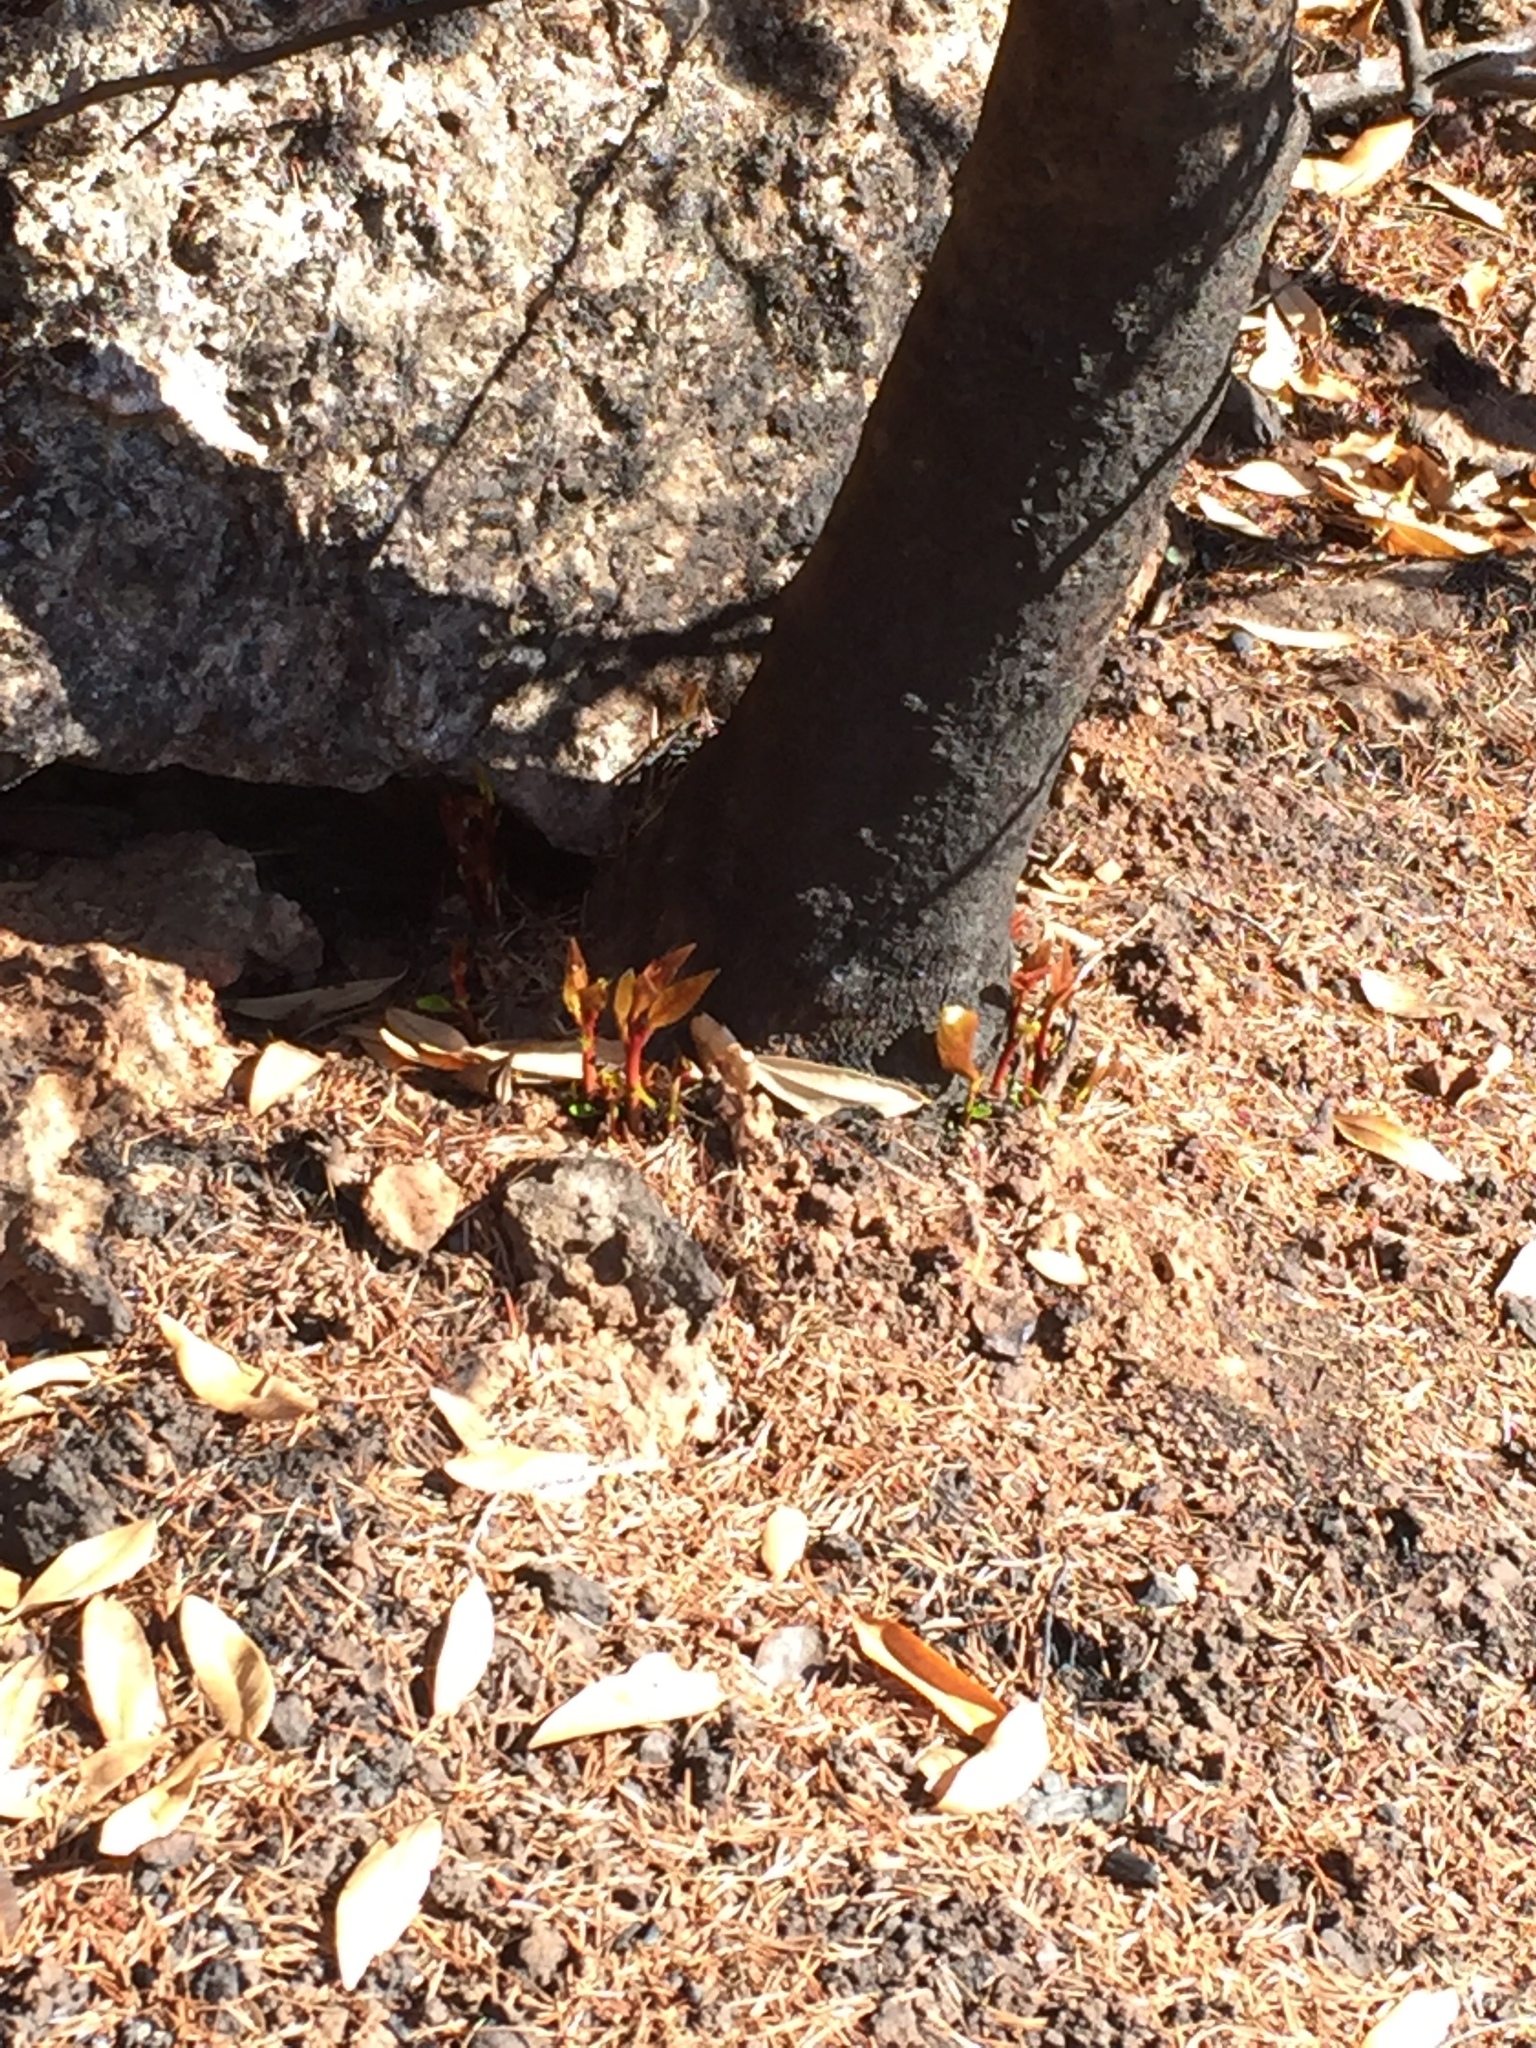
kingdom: Plantae
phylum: Tracheophyta
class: Magnoliopsida
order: Laurales
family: Lauraceae
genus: Umbellularia
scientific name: Umbellularia californica
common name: California bay
